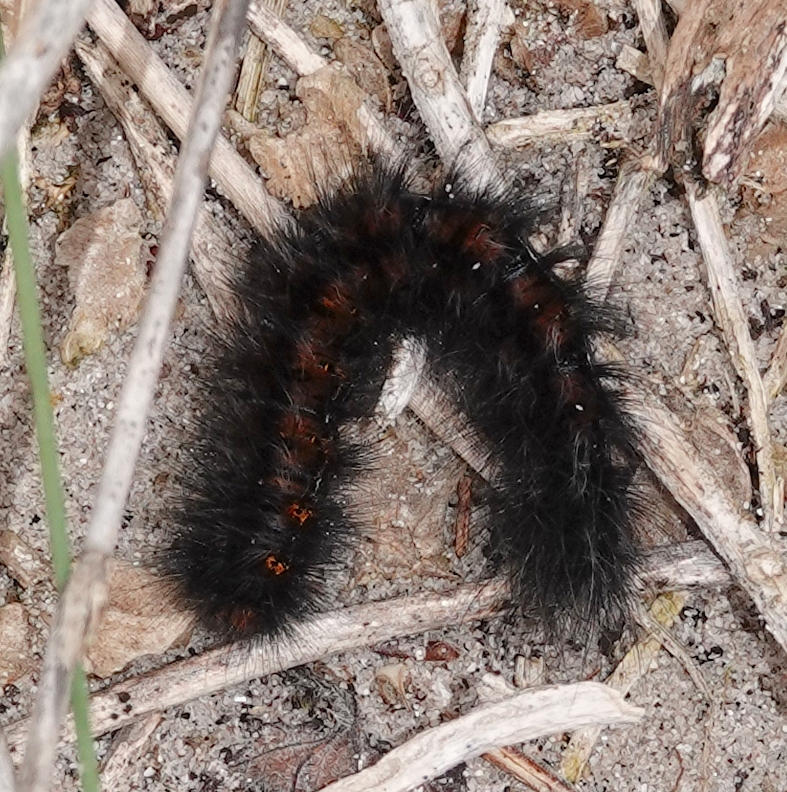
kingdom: Animalia
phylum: Arthropoda
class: Insecta
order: Lepidoptera
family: Lasiocampidae
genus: Mesocelis
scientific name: Mesocelis monticola
